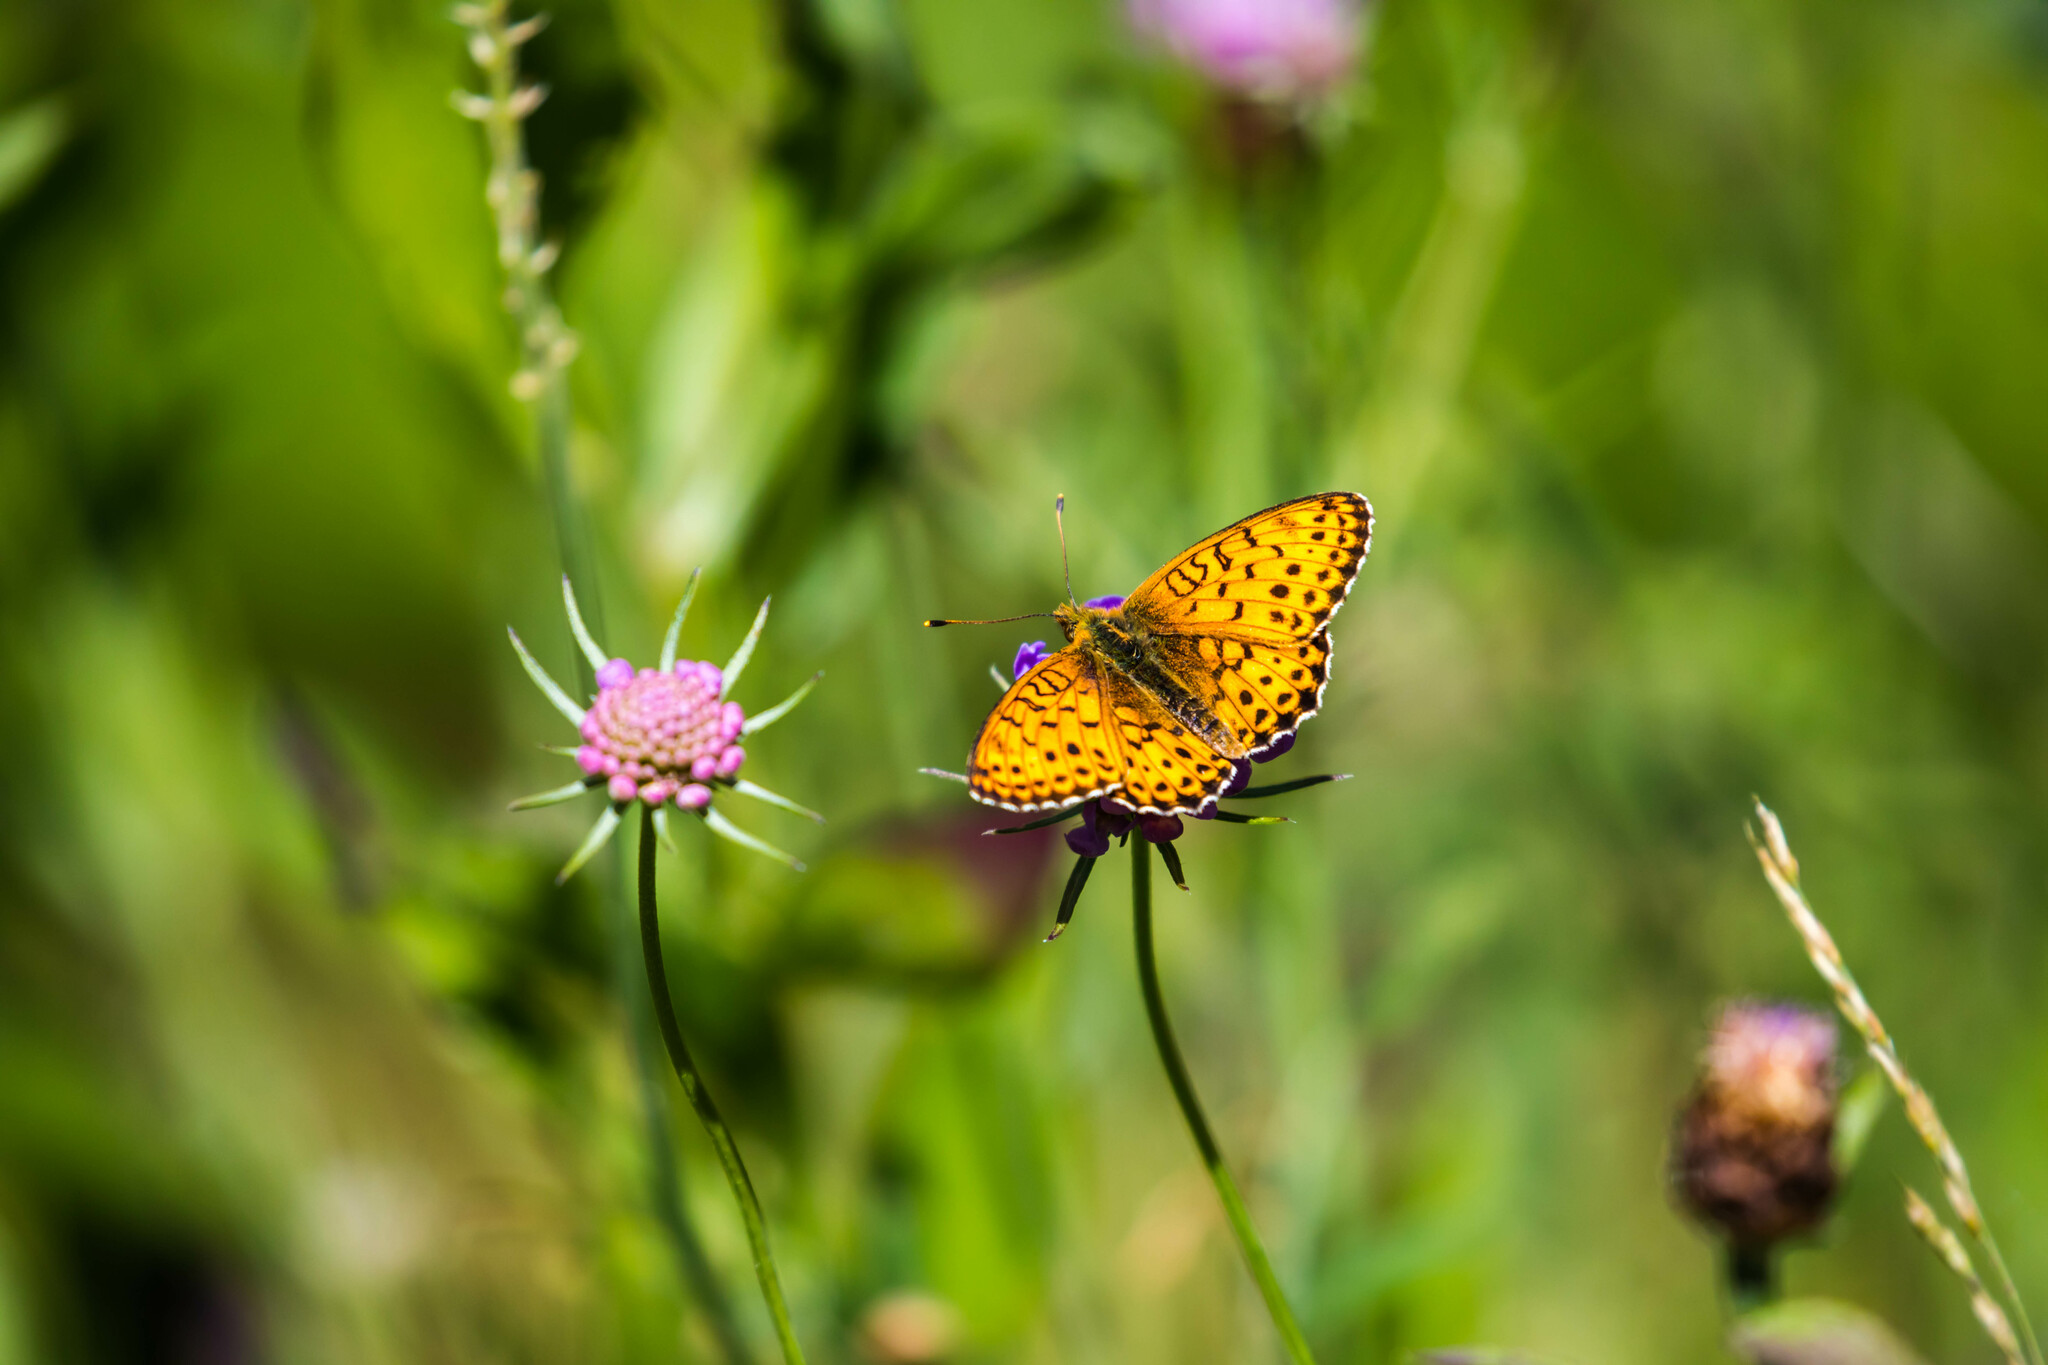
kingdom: Animalia
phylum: Arthropoda
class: Insecta
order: Lepidoptera
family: Nymphalidae
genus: Brenthis
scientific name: Brenthis ino
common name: Lesser marbled fritillary
